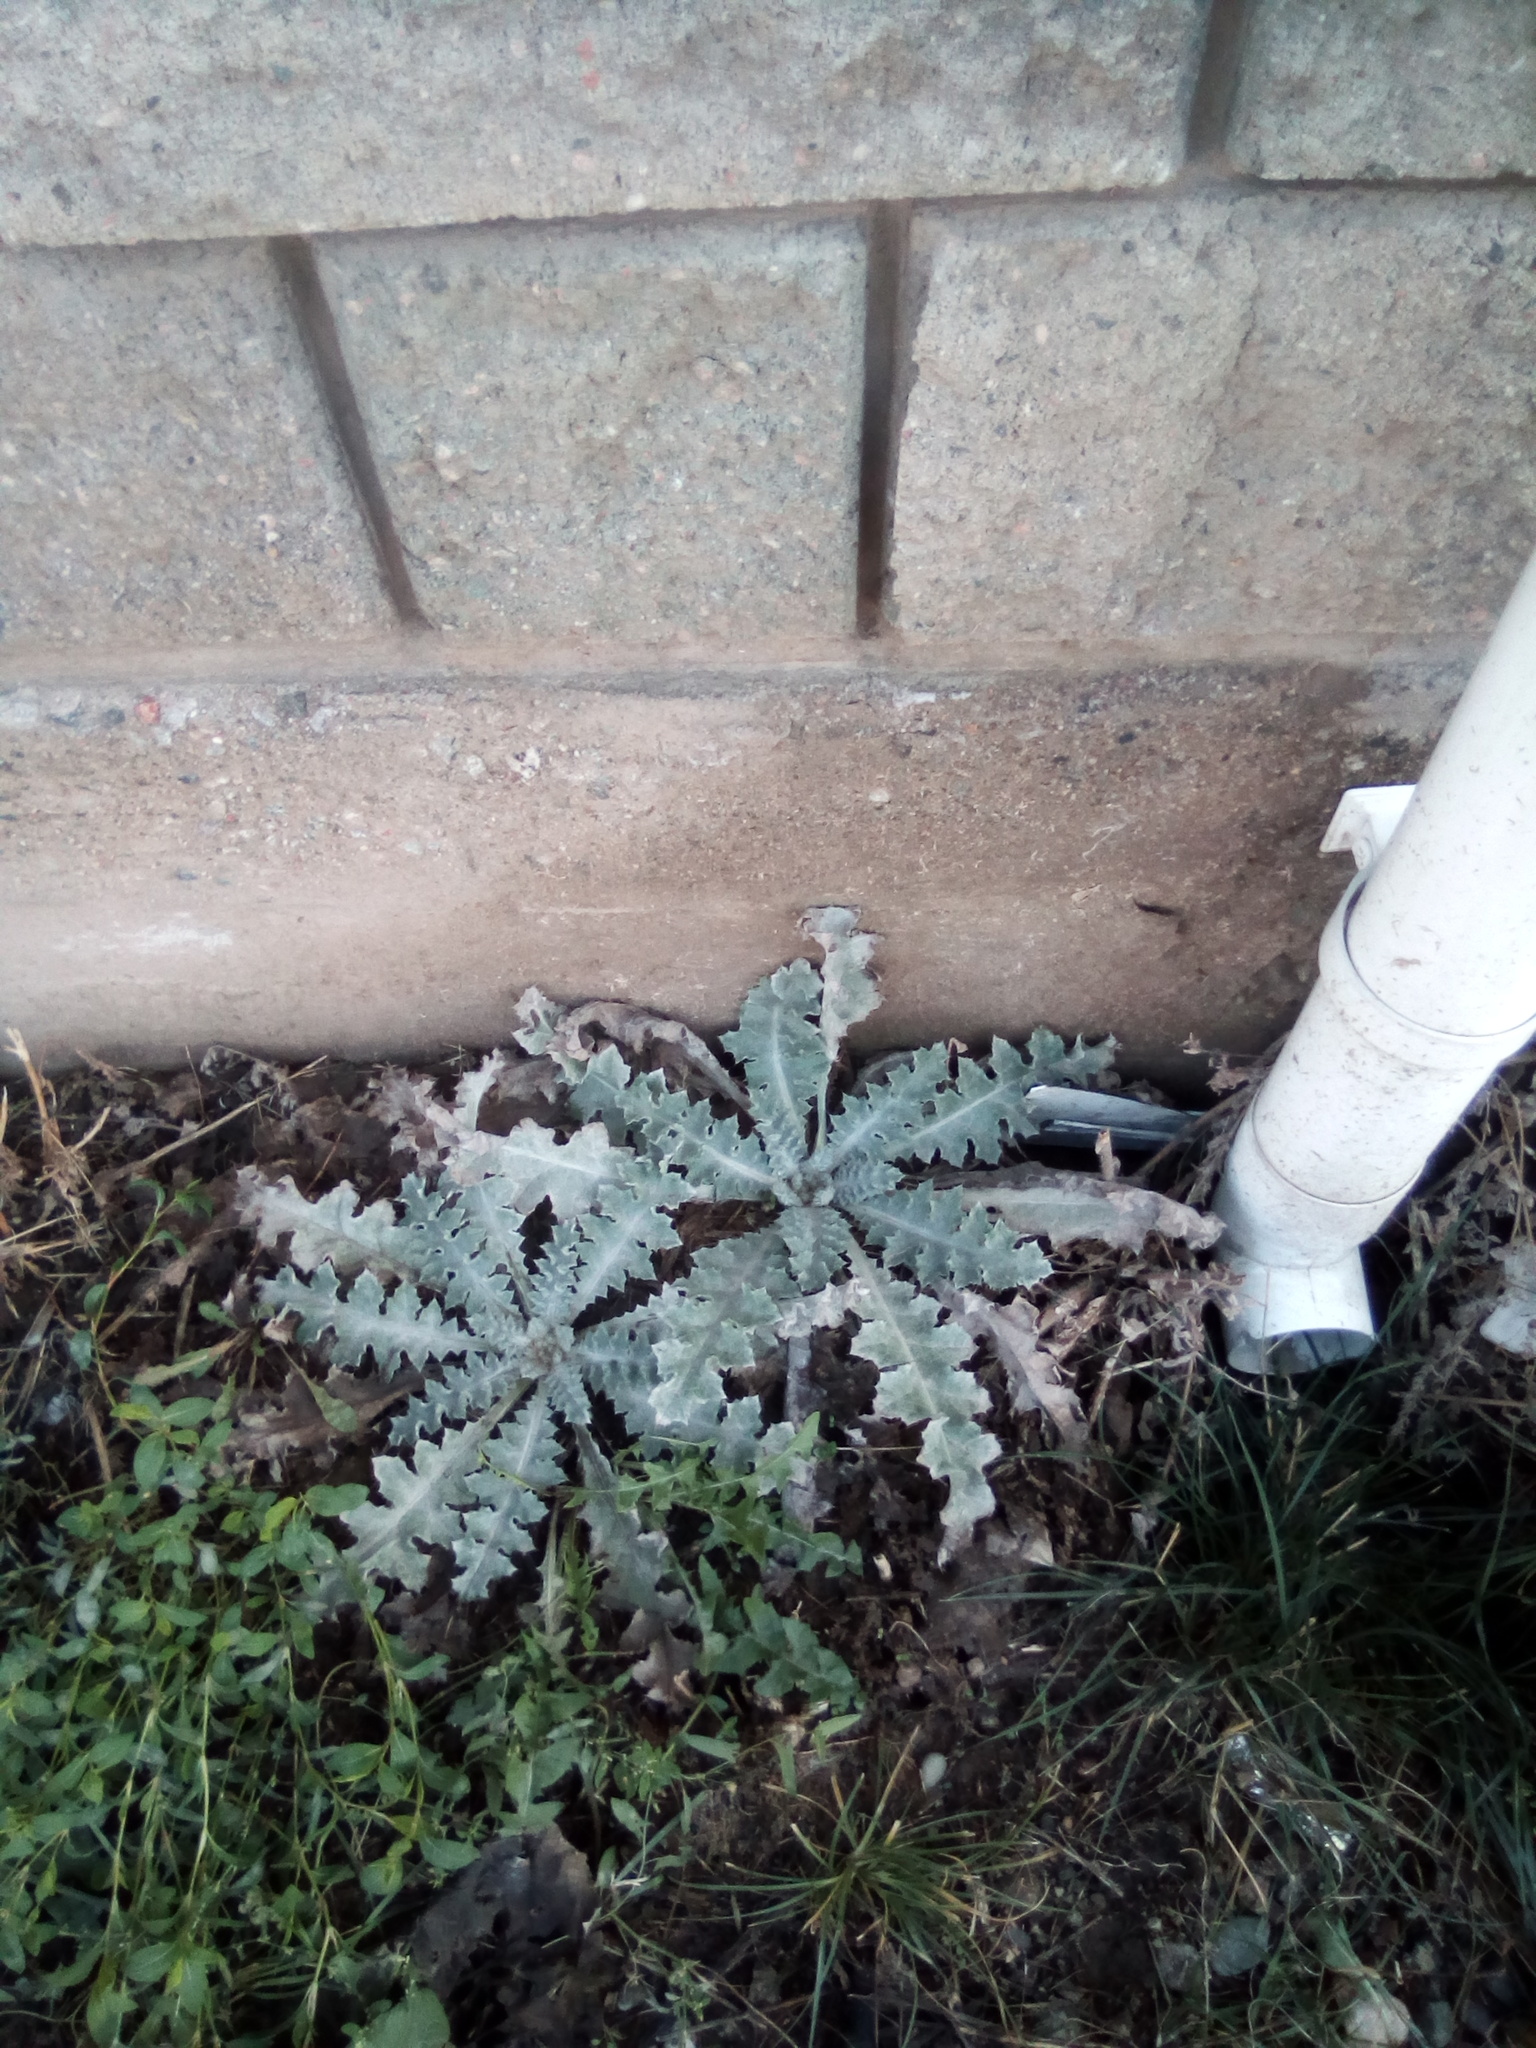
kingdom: Plantae
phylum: Tracheophyta
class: Magnoliopsida
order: Asterales
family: Asteraceae
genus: Onopordum
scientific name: Onopordum acanthium
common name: Scotch thistle
